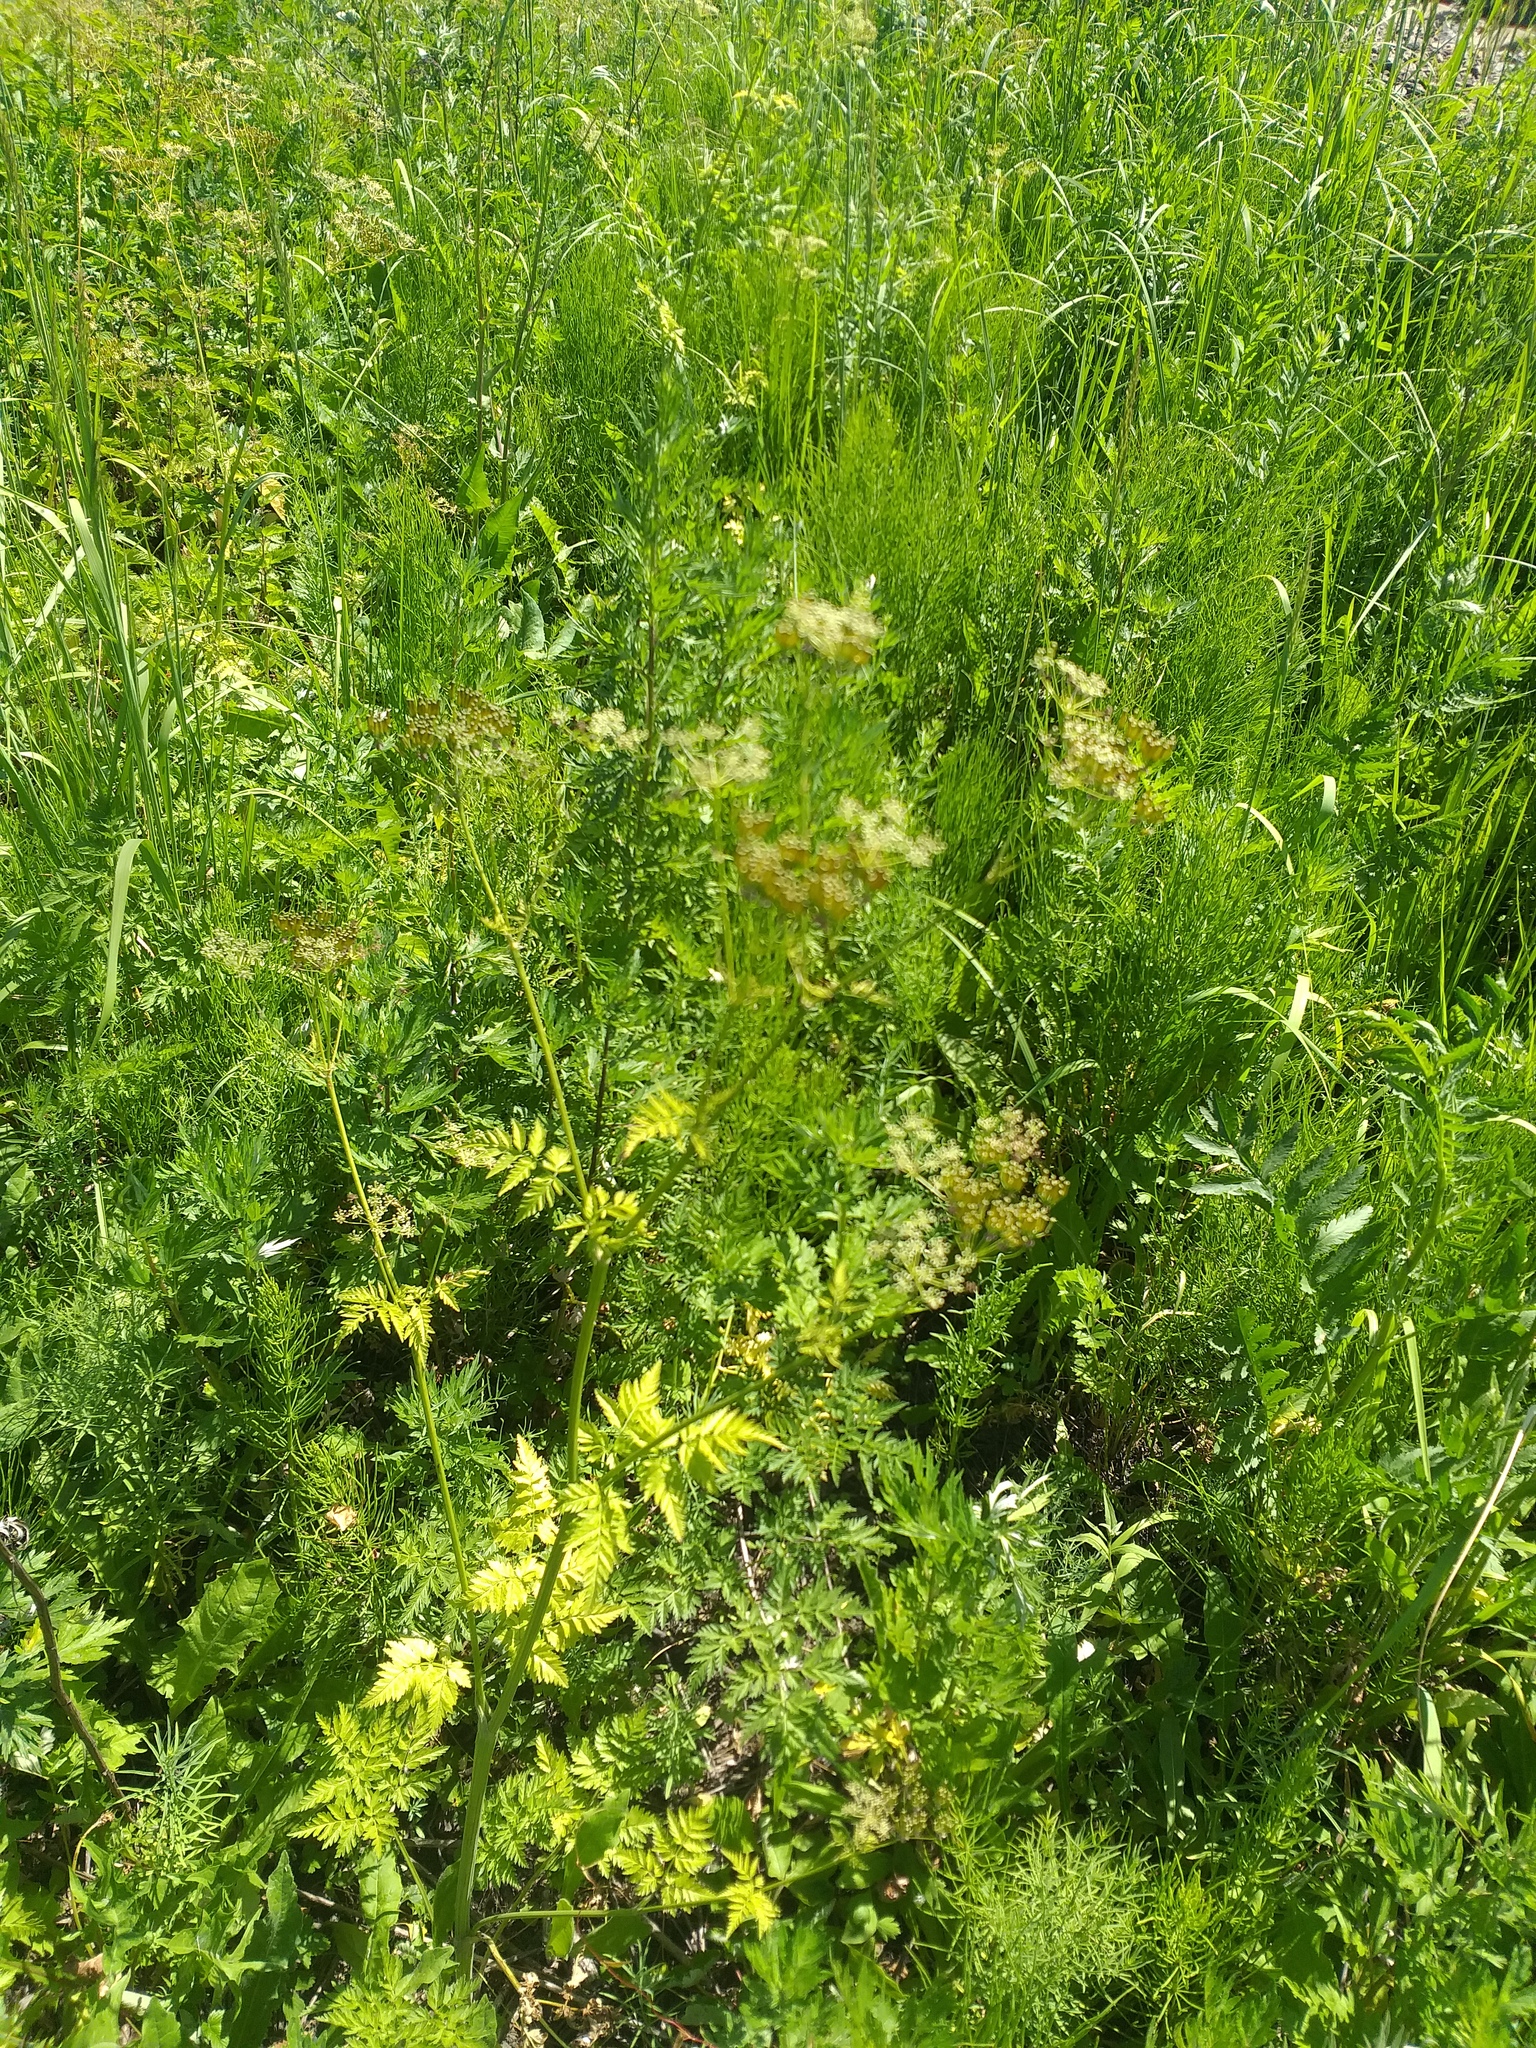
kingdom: Plantae
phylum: Tracheophyta
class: Magnoliopsida
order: Apiales
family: Apiaceae
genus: Anthriscus
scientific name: Anthriscus sylvestris
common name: Cow parsley
